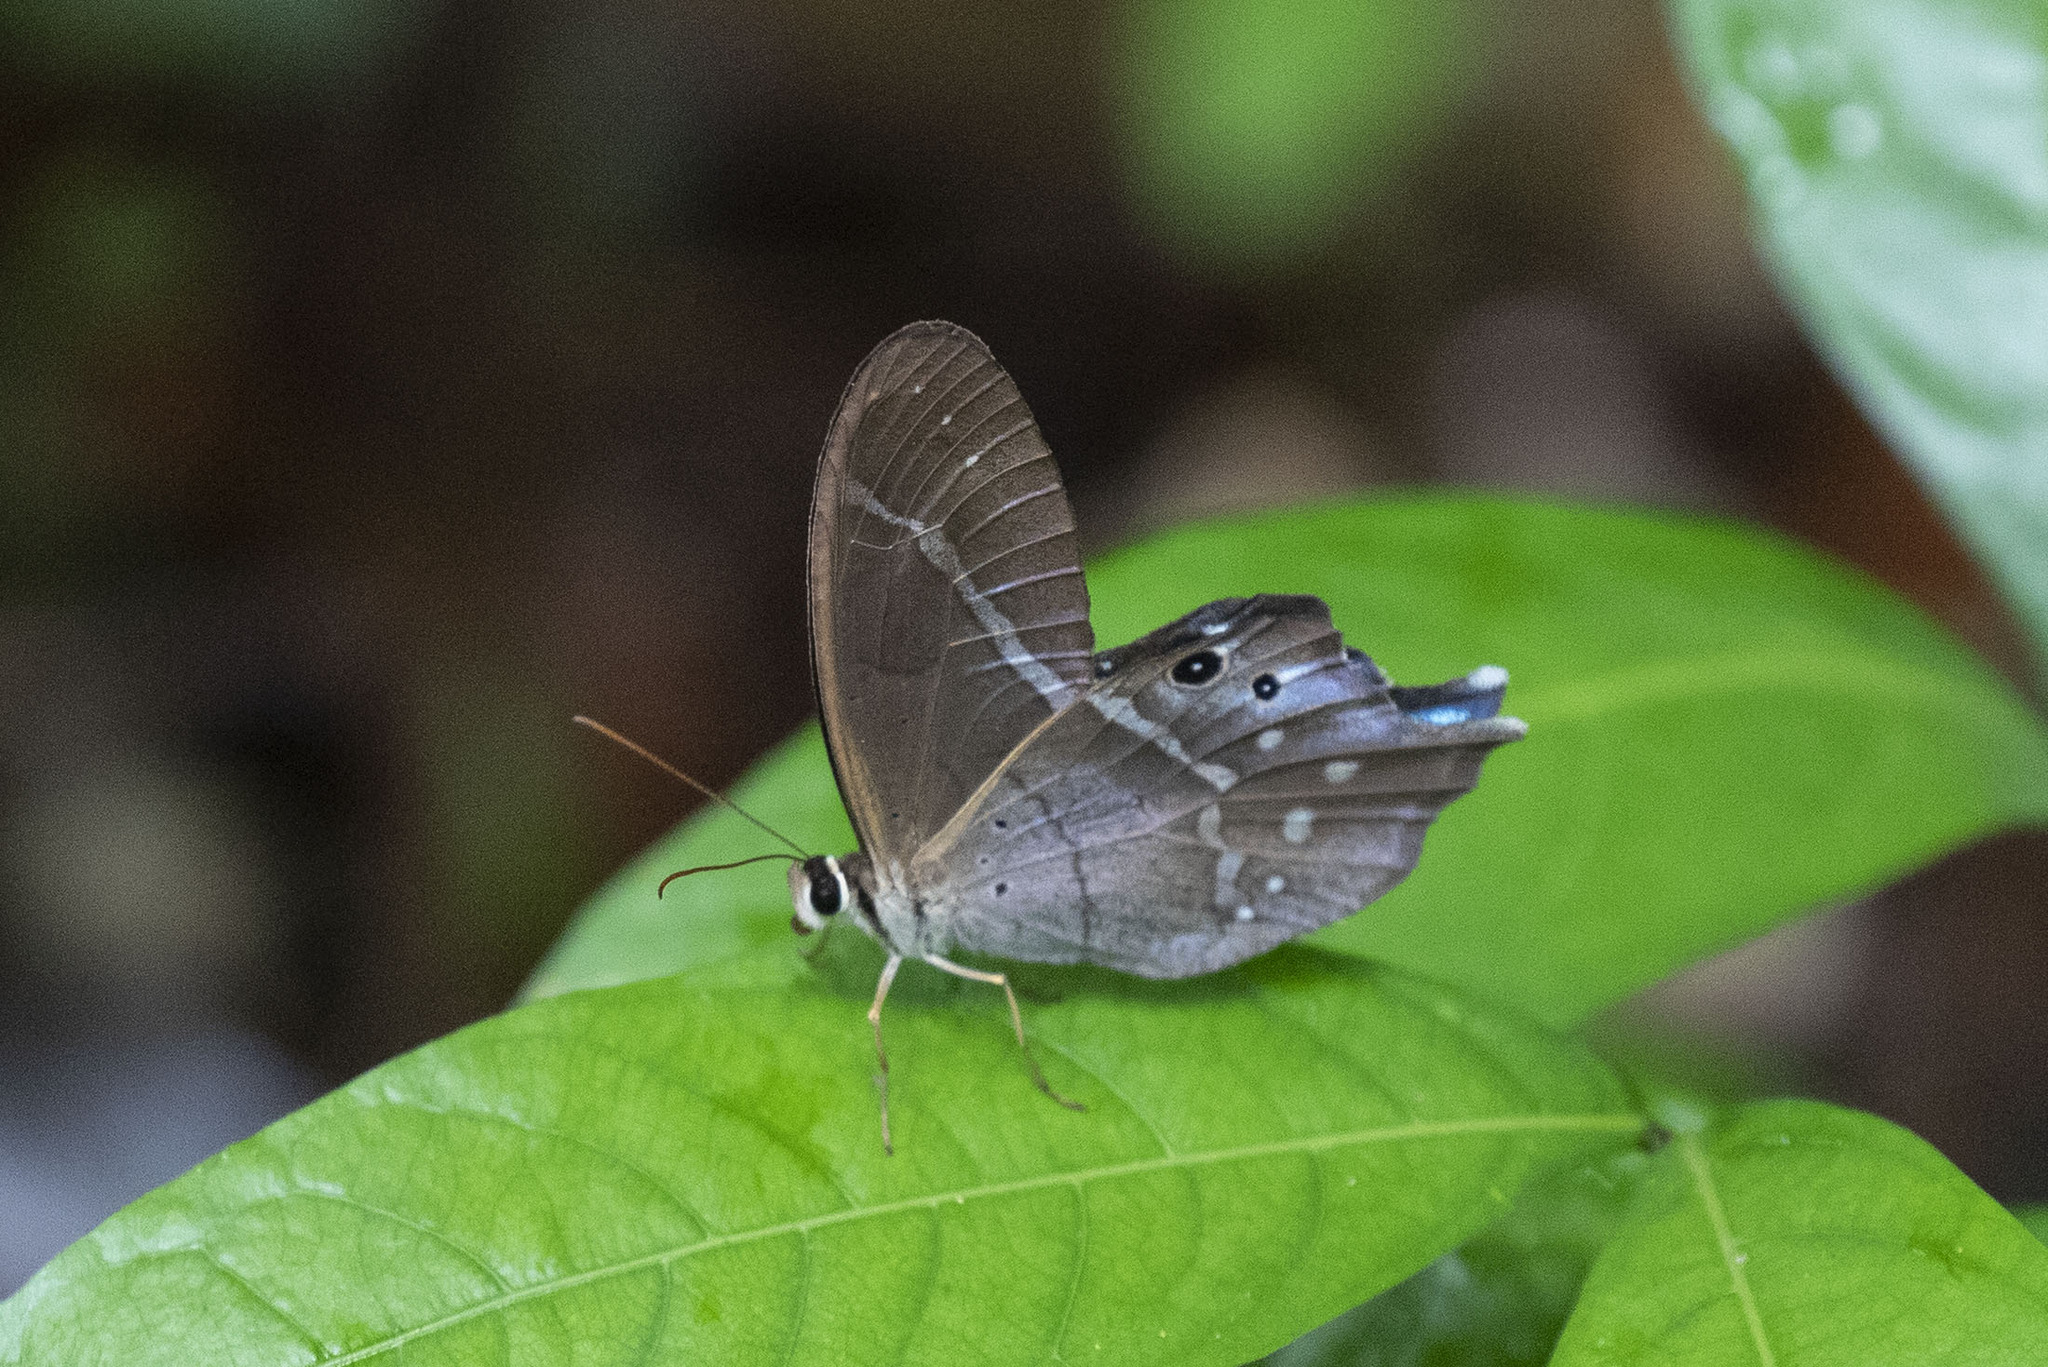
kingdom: Animalia
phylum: Arthropoda
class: Insecta
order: Lepidoptera
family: Nymphalidae
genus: Pierella
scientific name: Pierella dracontis
